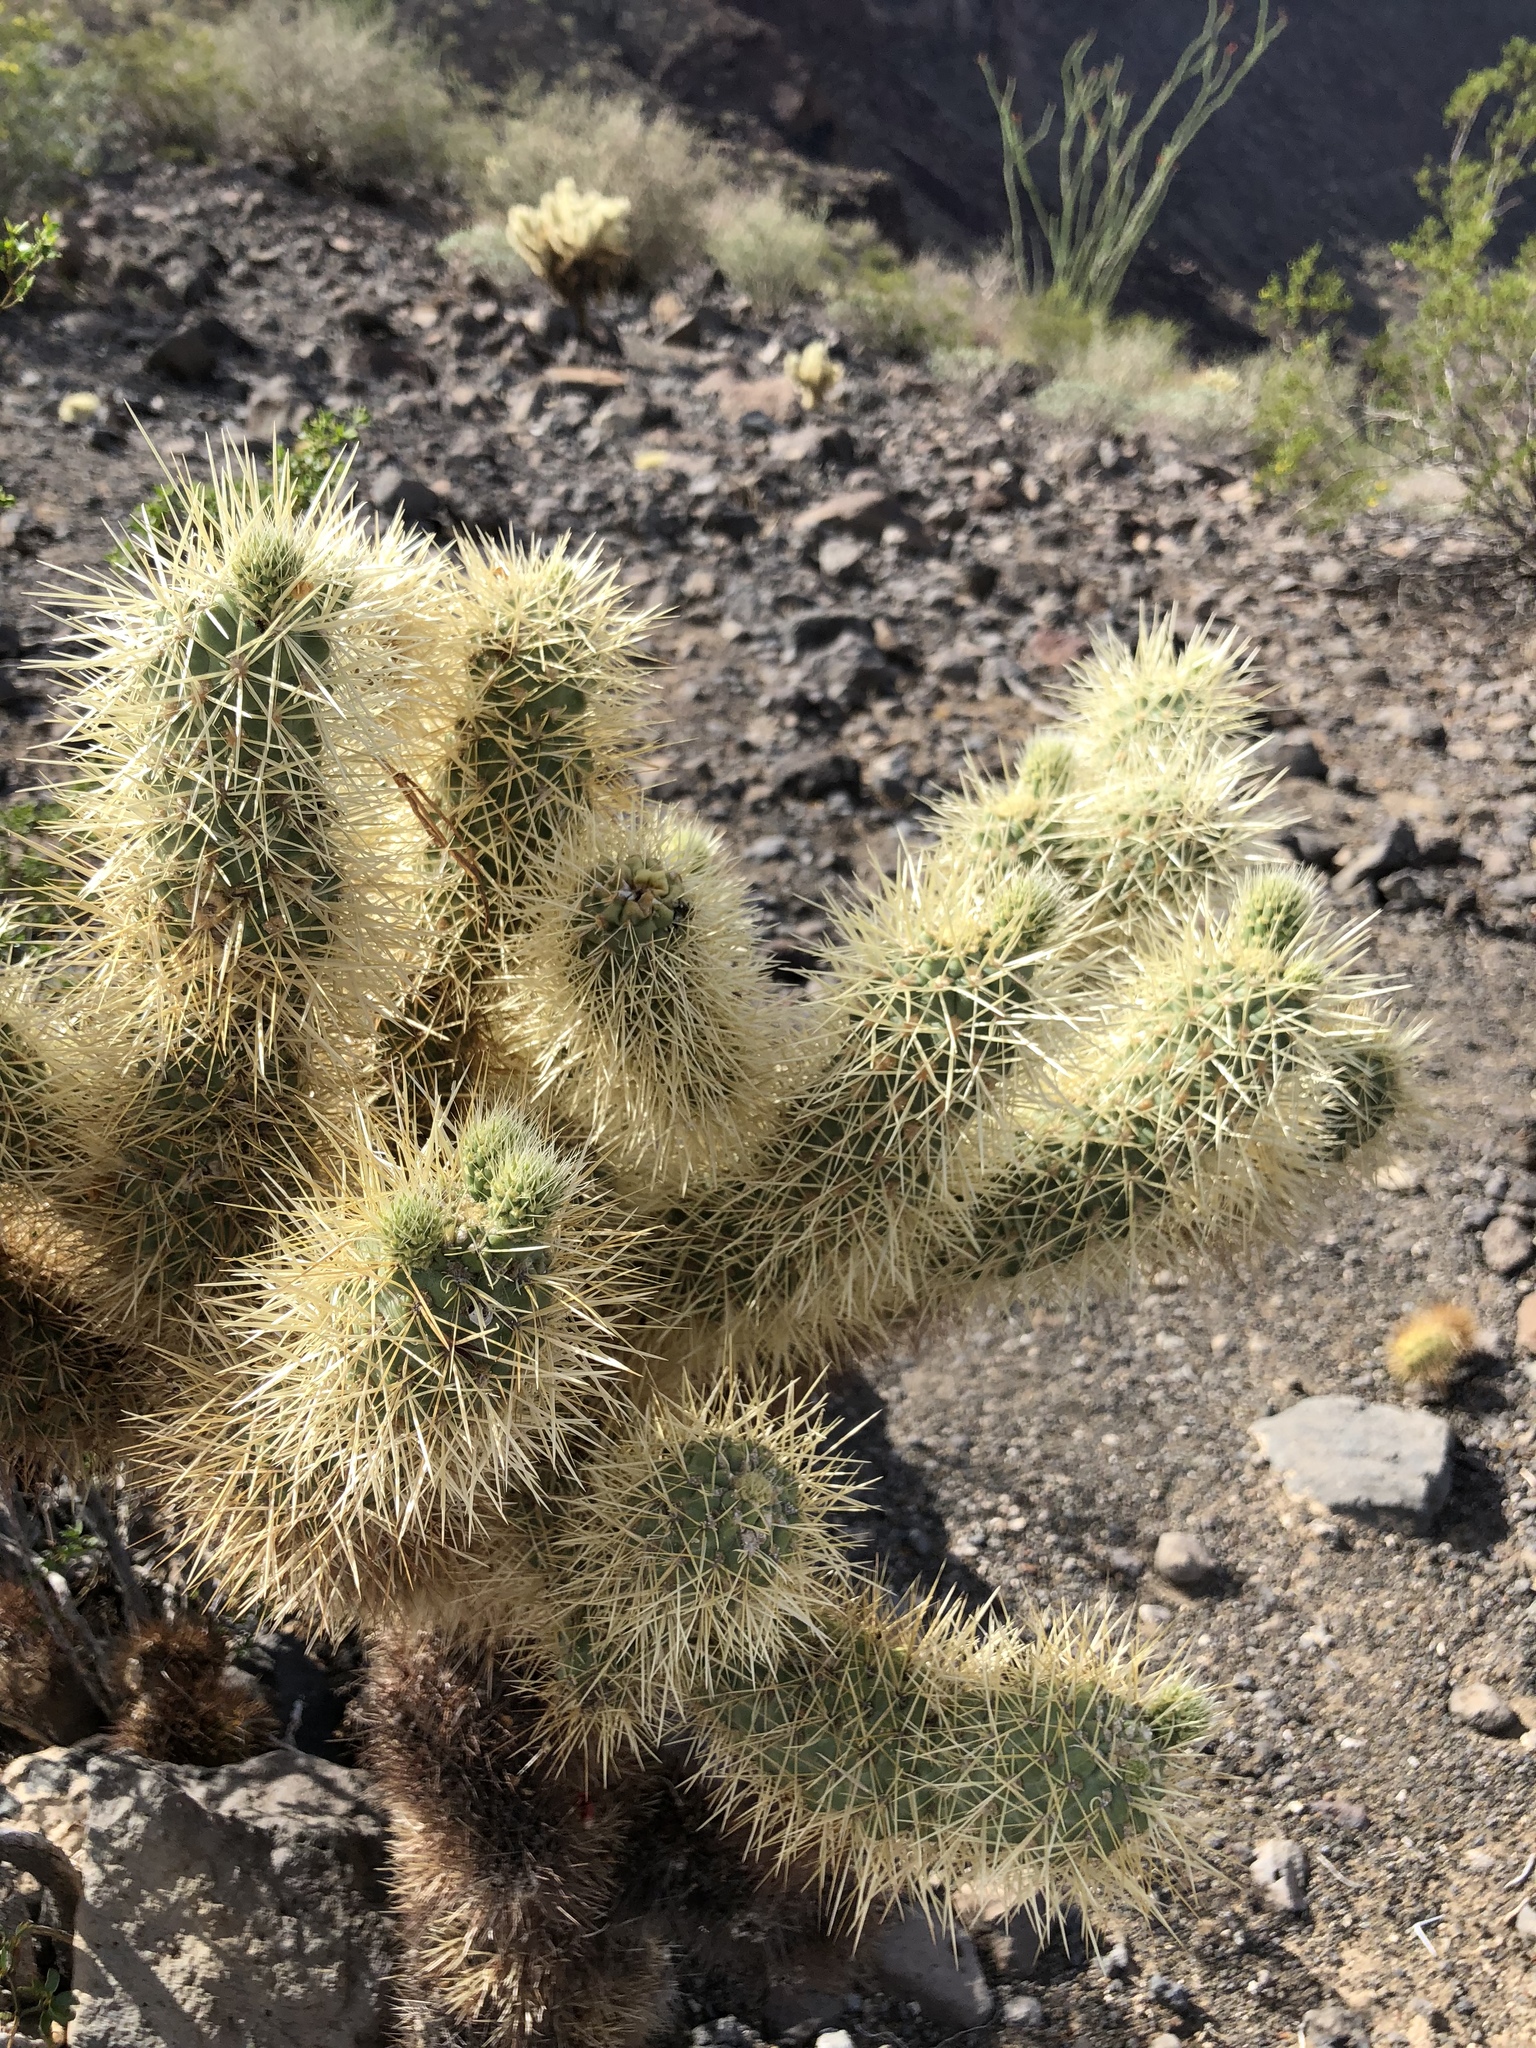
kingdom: Plantae
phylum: Tracheophyta
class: Magnoliopsida
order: Caryophyllales
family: Cactaceae
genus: Cylindropuntia
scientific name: Cylindropuntia fosbergii
